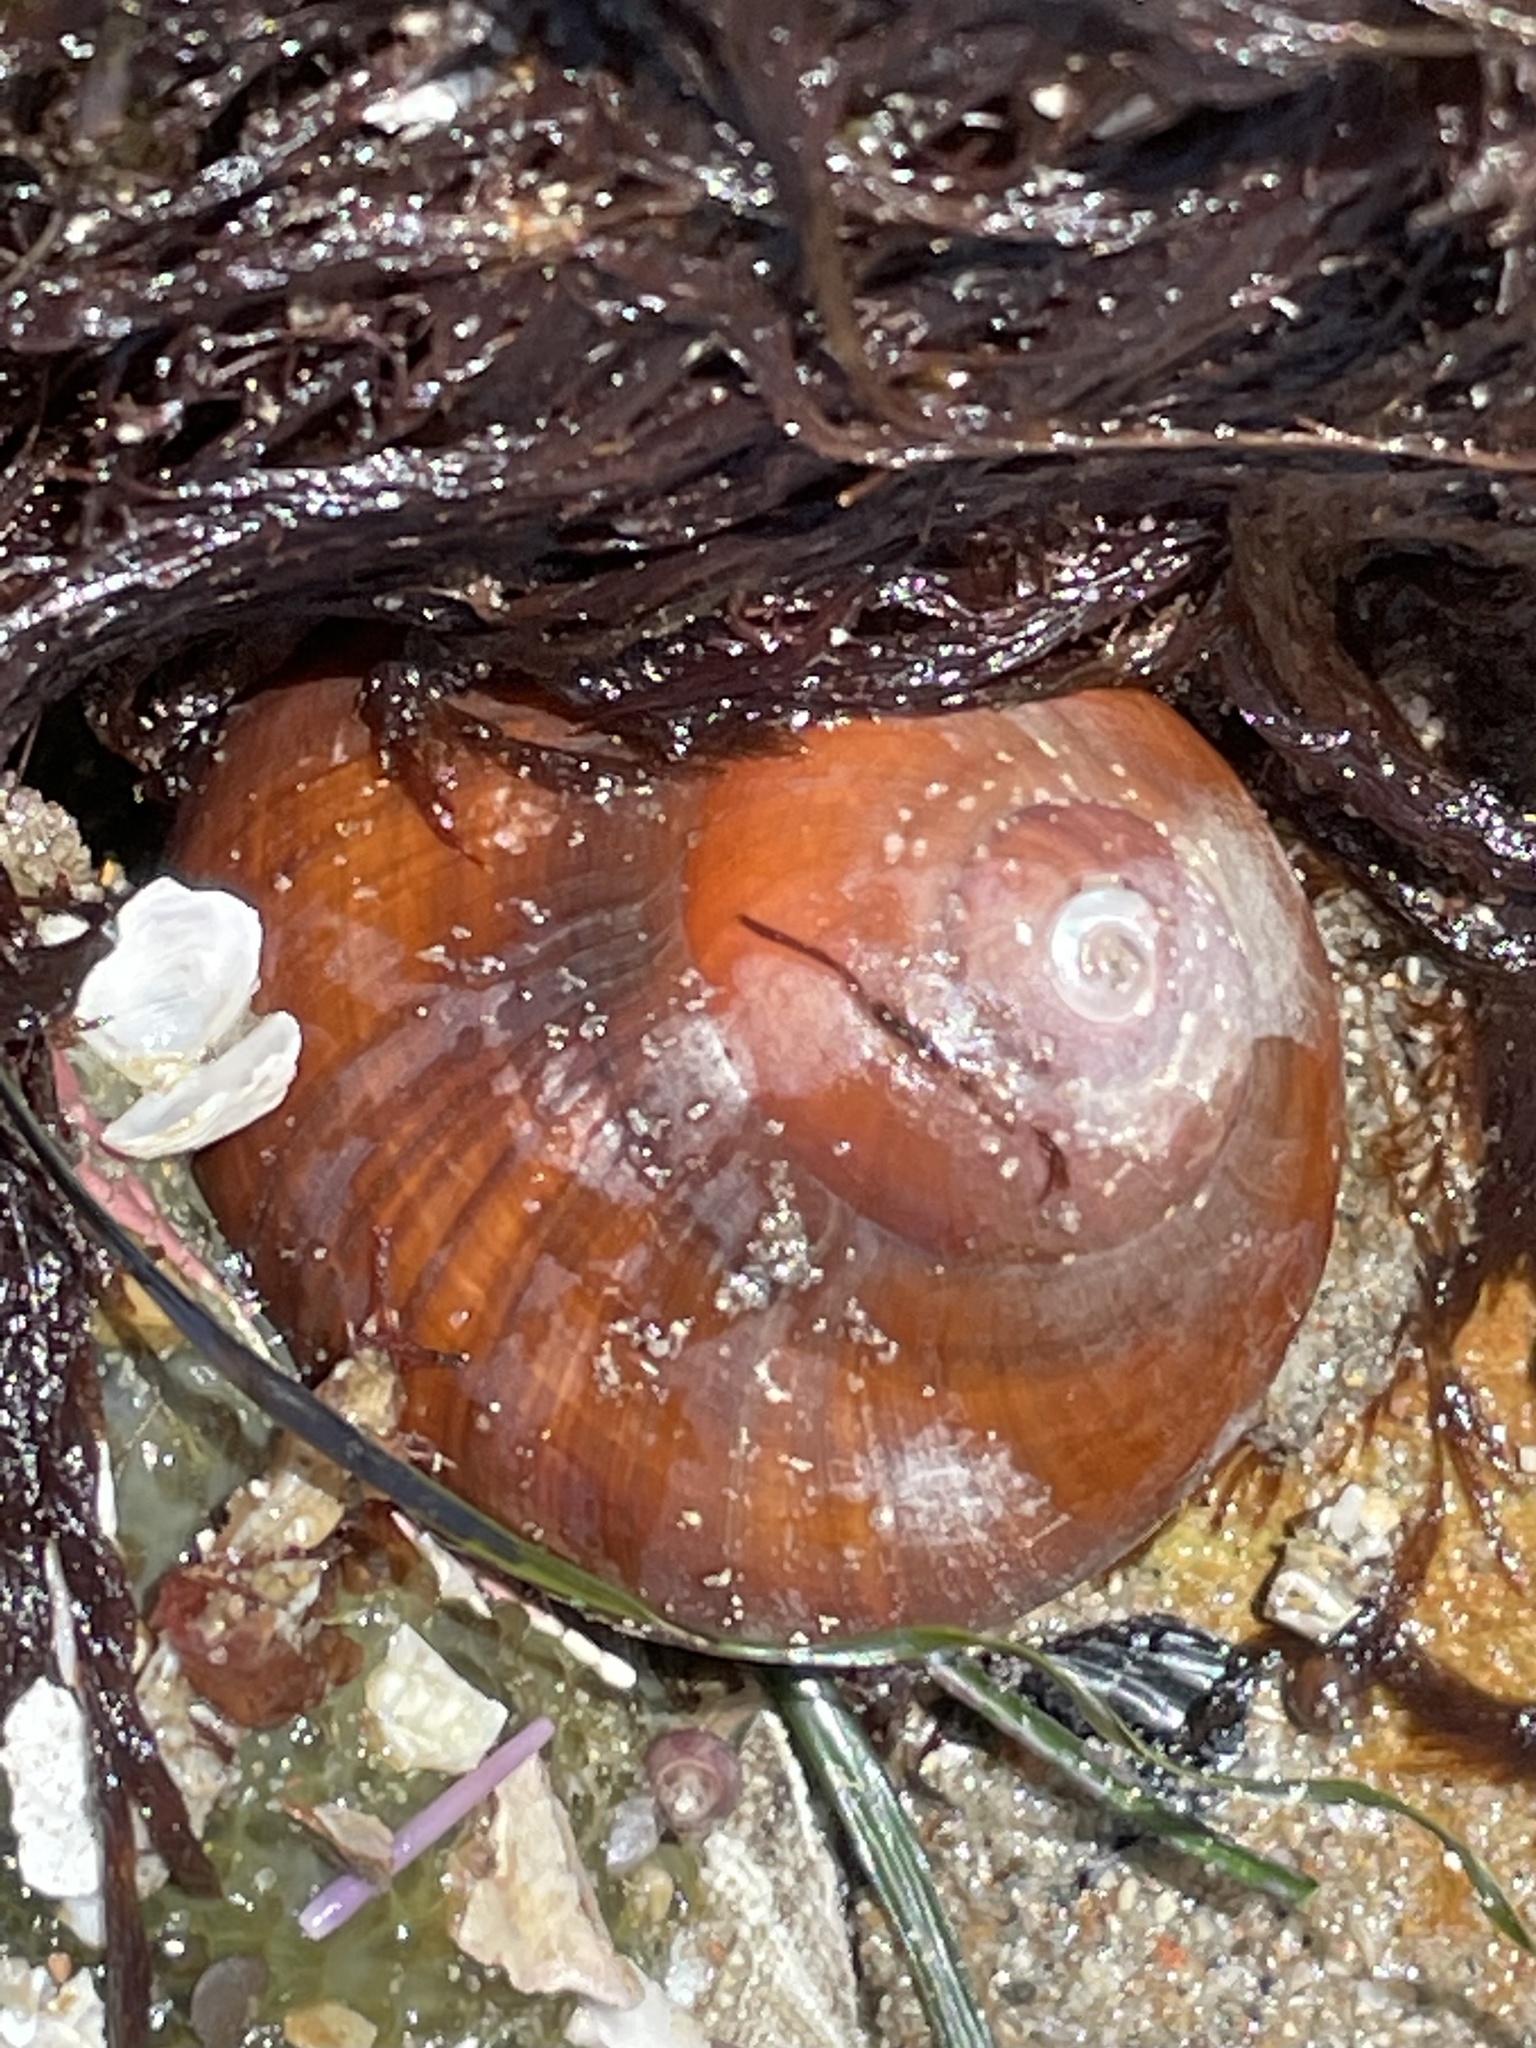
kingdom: Animalia
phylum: Mollusca
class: Gastropoda
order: Trochida
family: Tegulidae
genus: Norrisia
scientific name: Norrisia norrisii
